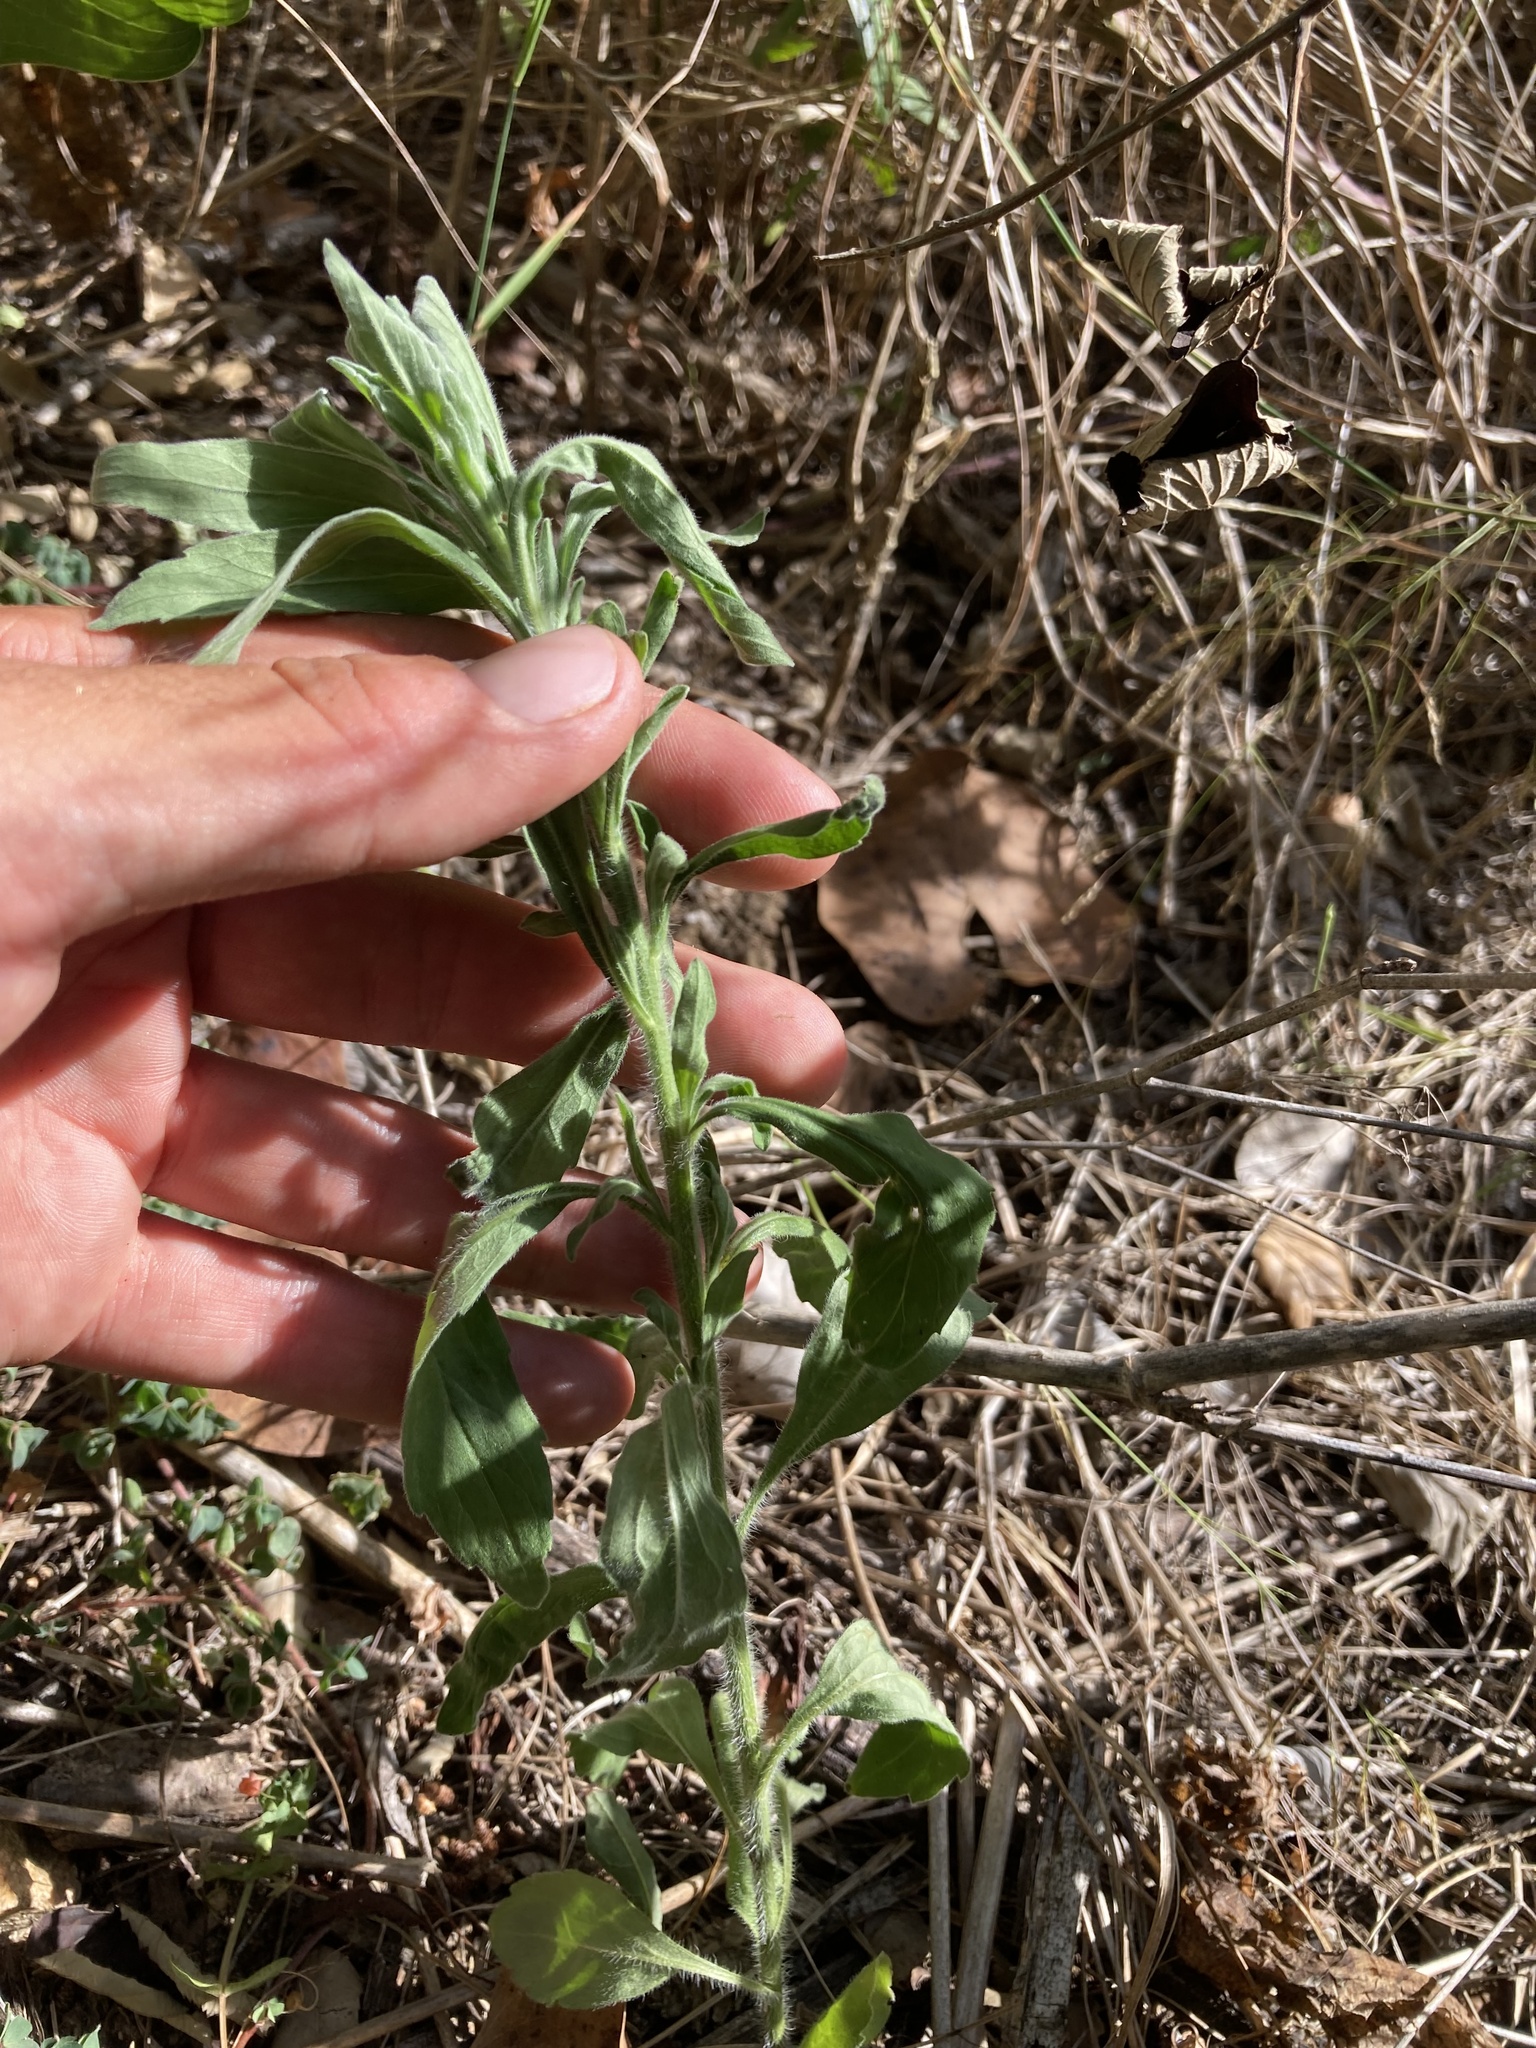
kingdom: Plantae
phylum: Tracheophyta
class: Magnoliopsida
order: Asterales
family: Asteraceae
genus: Erigeron
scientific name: Erigeron sumatrensis
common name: Daisy
